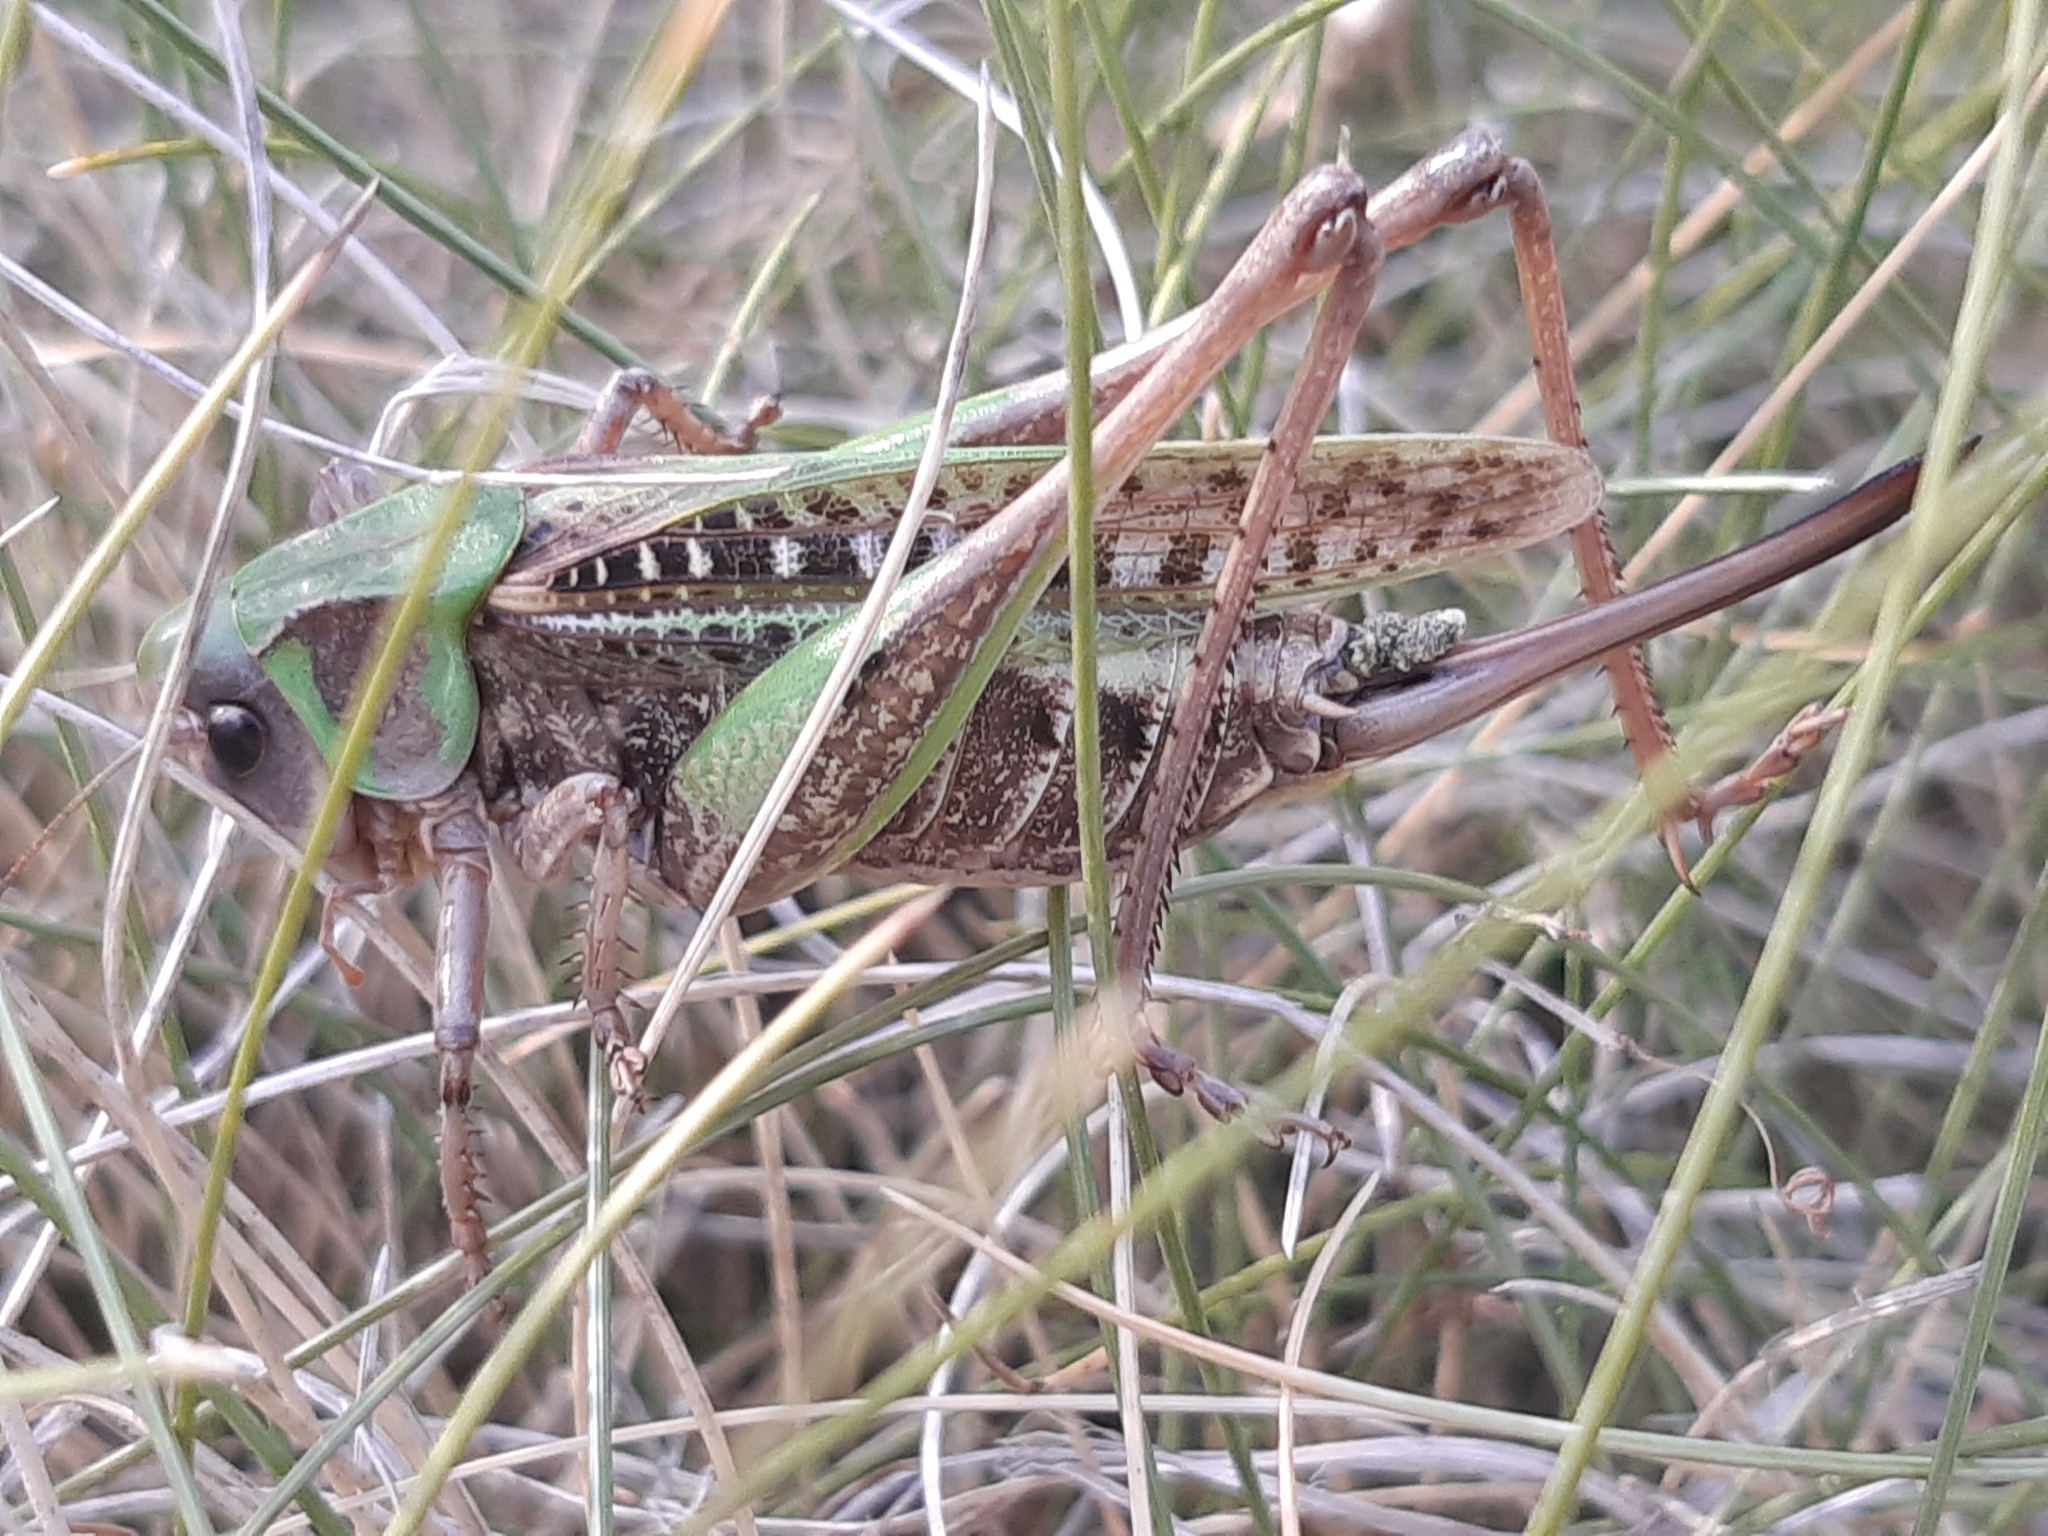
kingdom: Animalia
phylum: Arthropoda
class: Insecta
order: Orthoptera
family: Tettigoniidae
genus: Decticus
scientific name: Decticus verrucivorus
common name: Wart-biter
